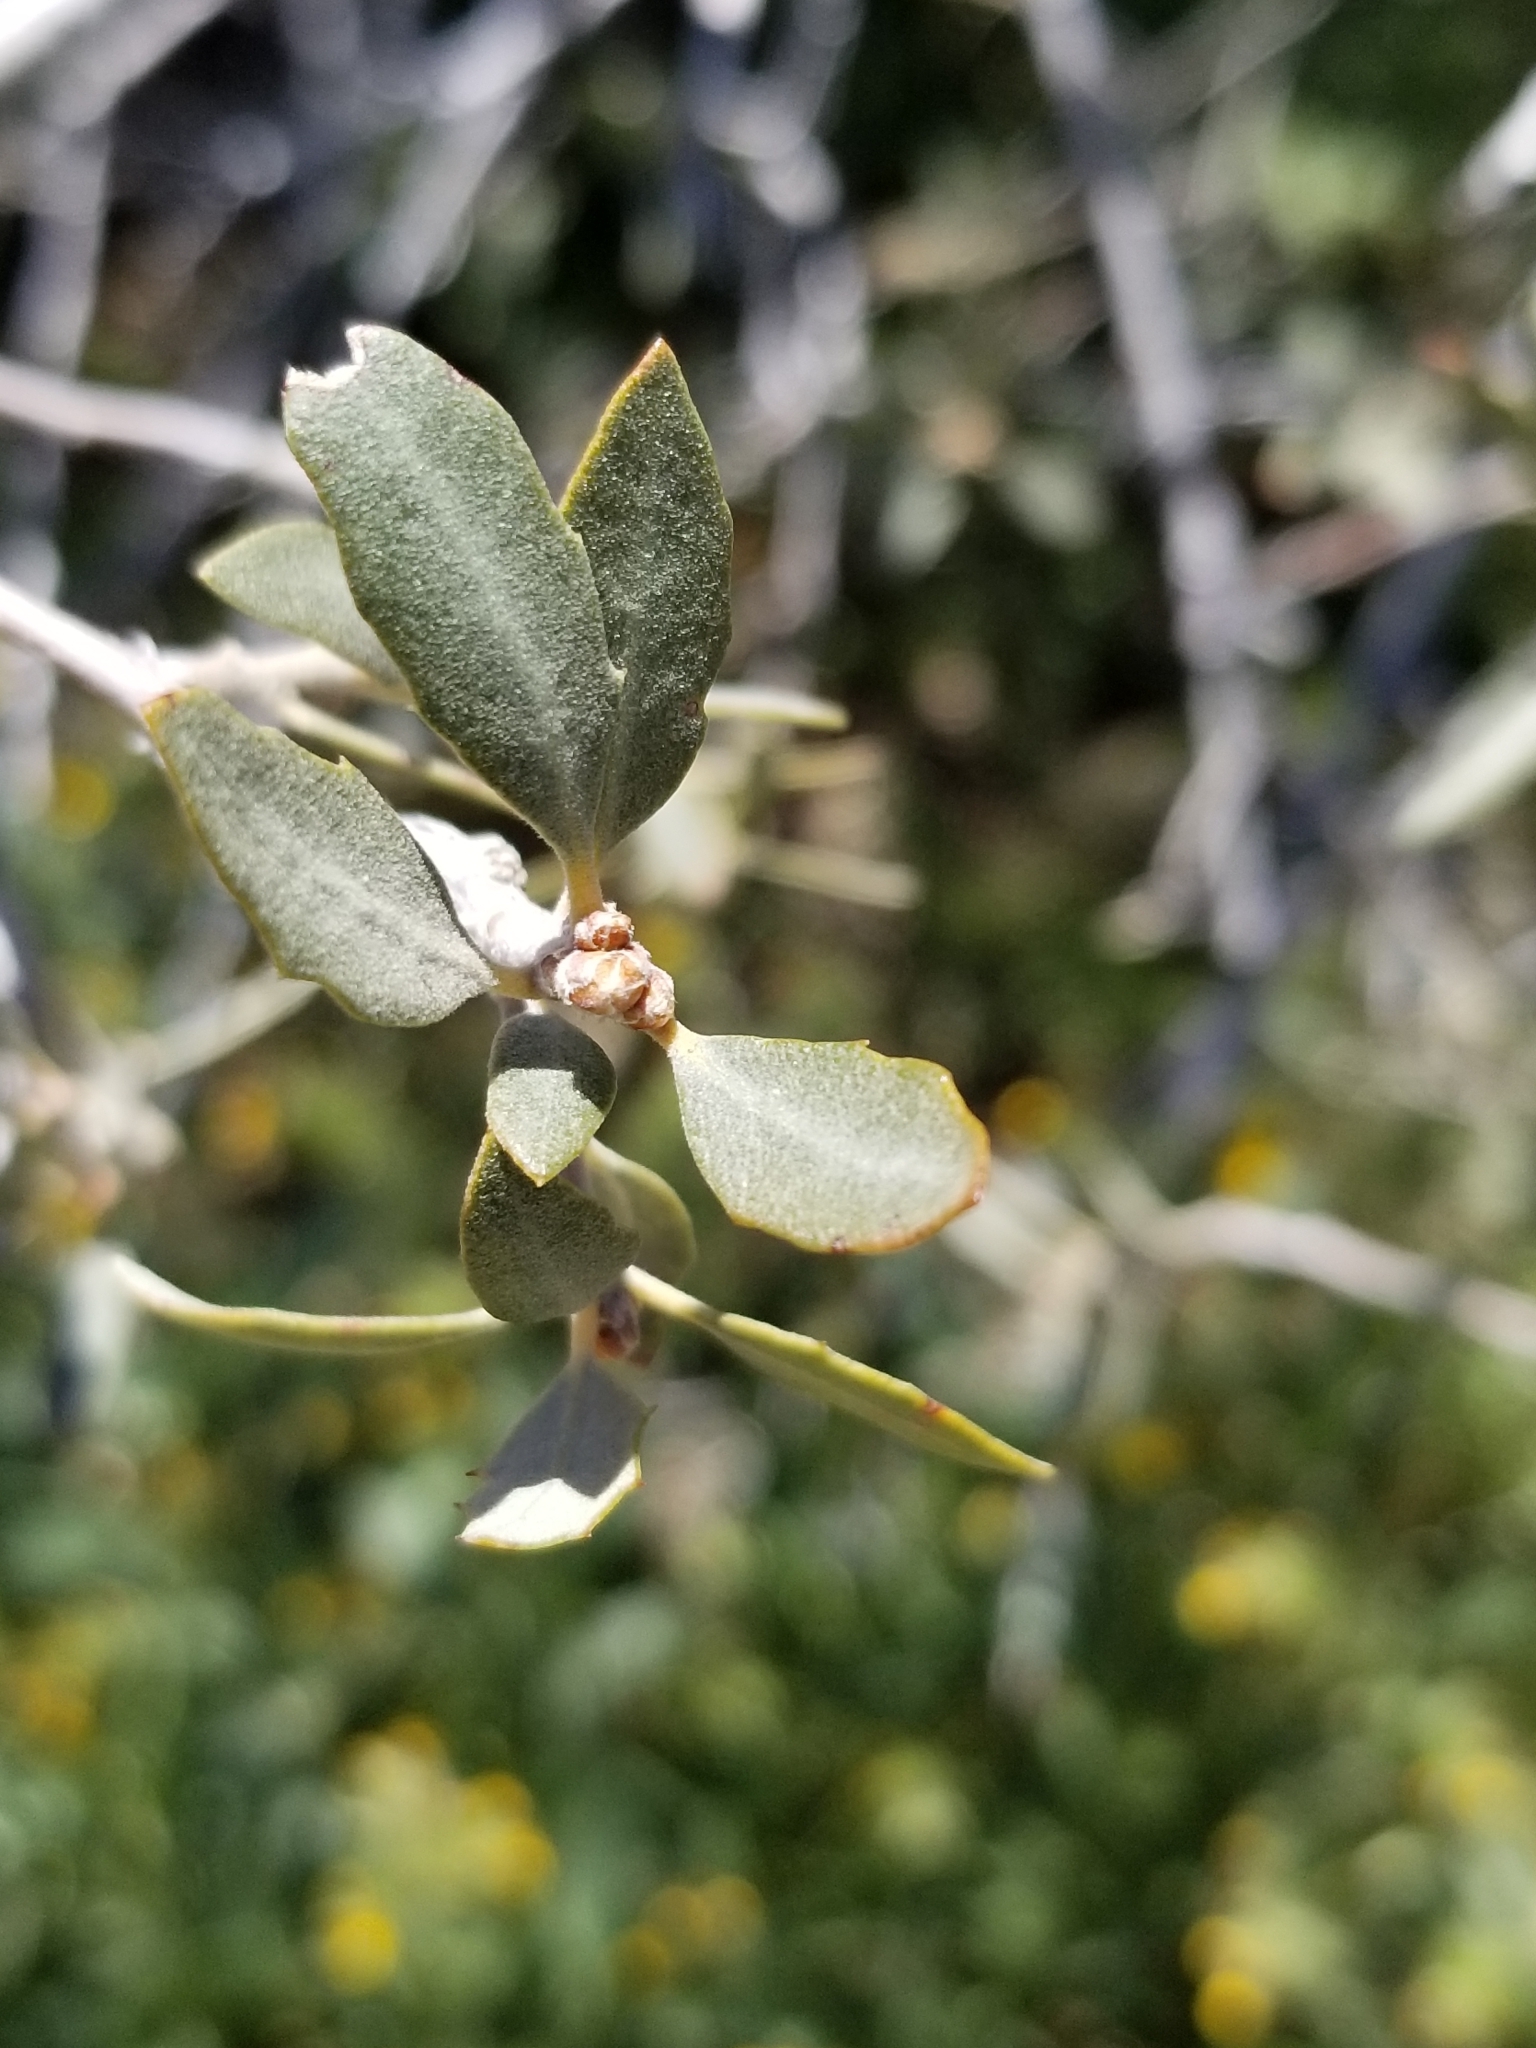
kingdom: Plantae
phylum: Tracheophyta
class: Magnoliopsida
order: Fagales
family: Fagaceae
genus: Quercus
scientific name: Quercus cornelius-mulleri
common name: Muller oak
